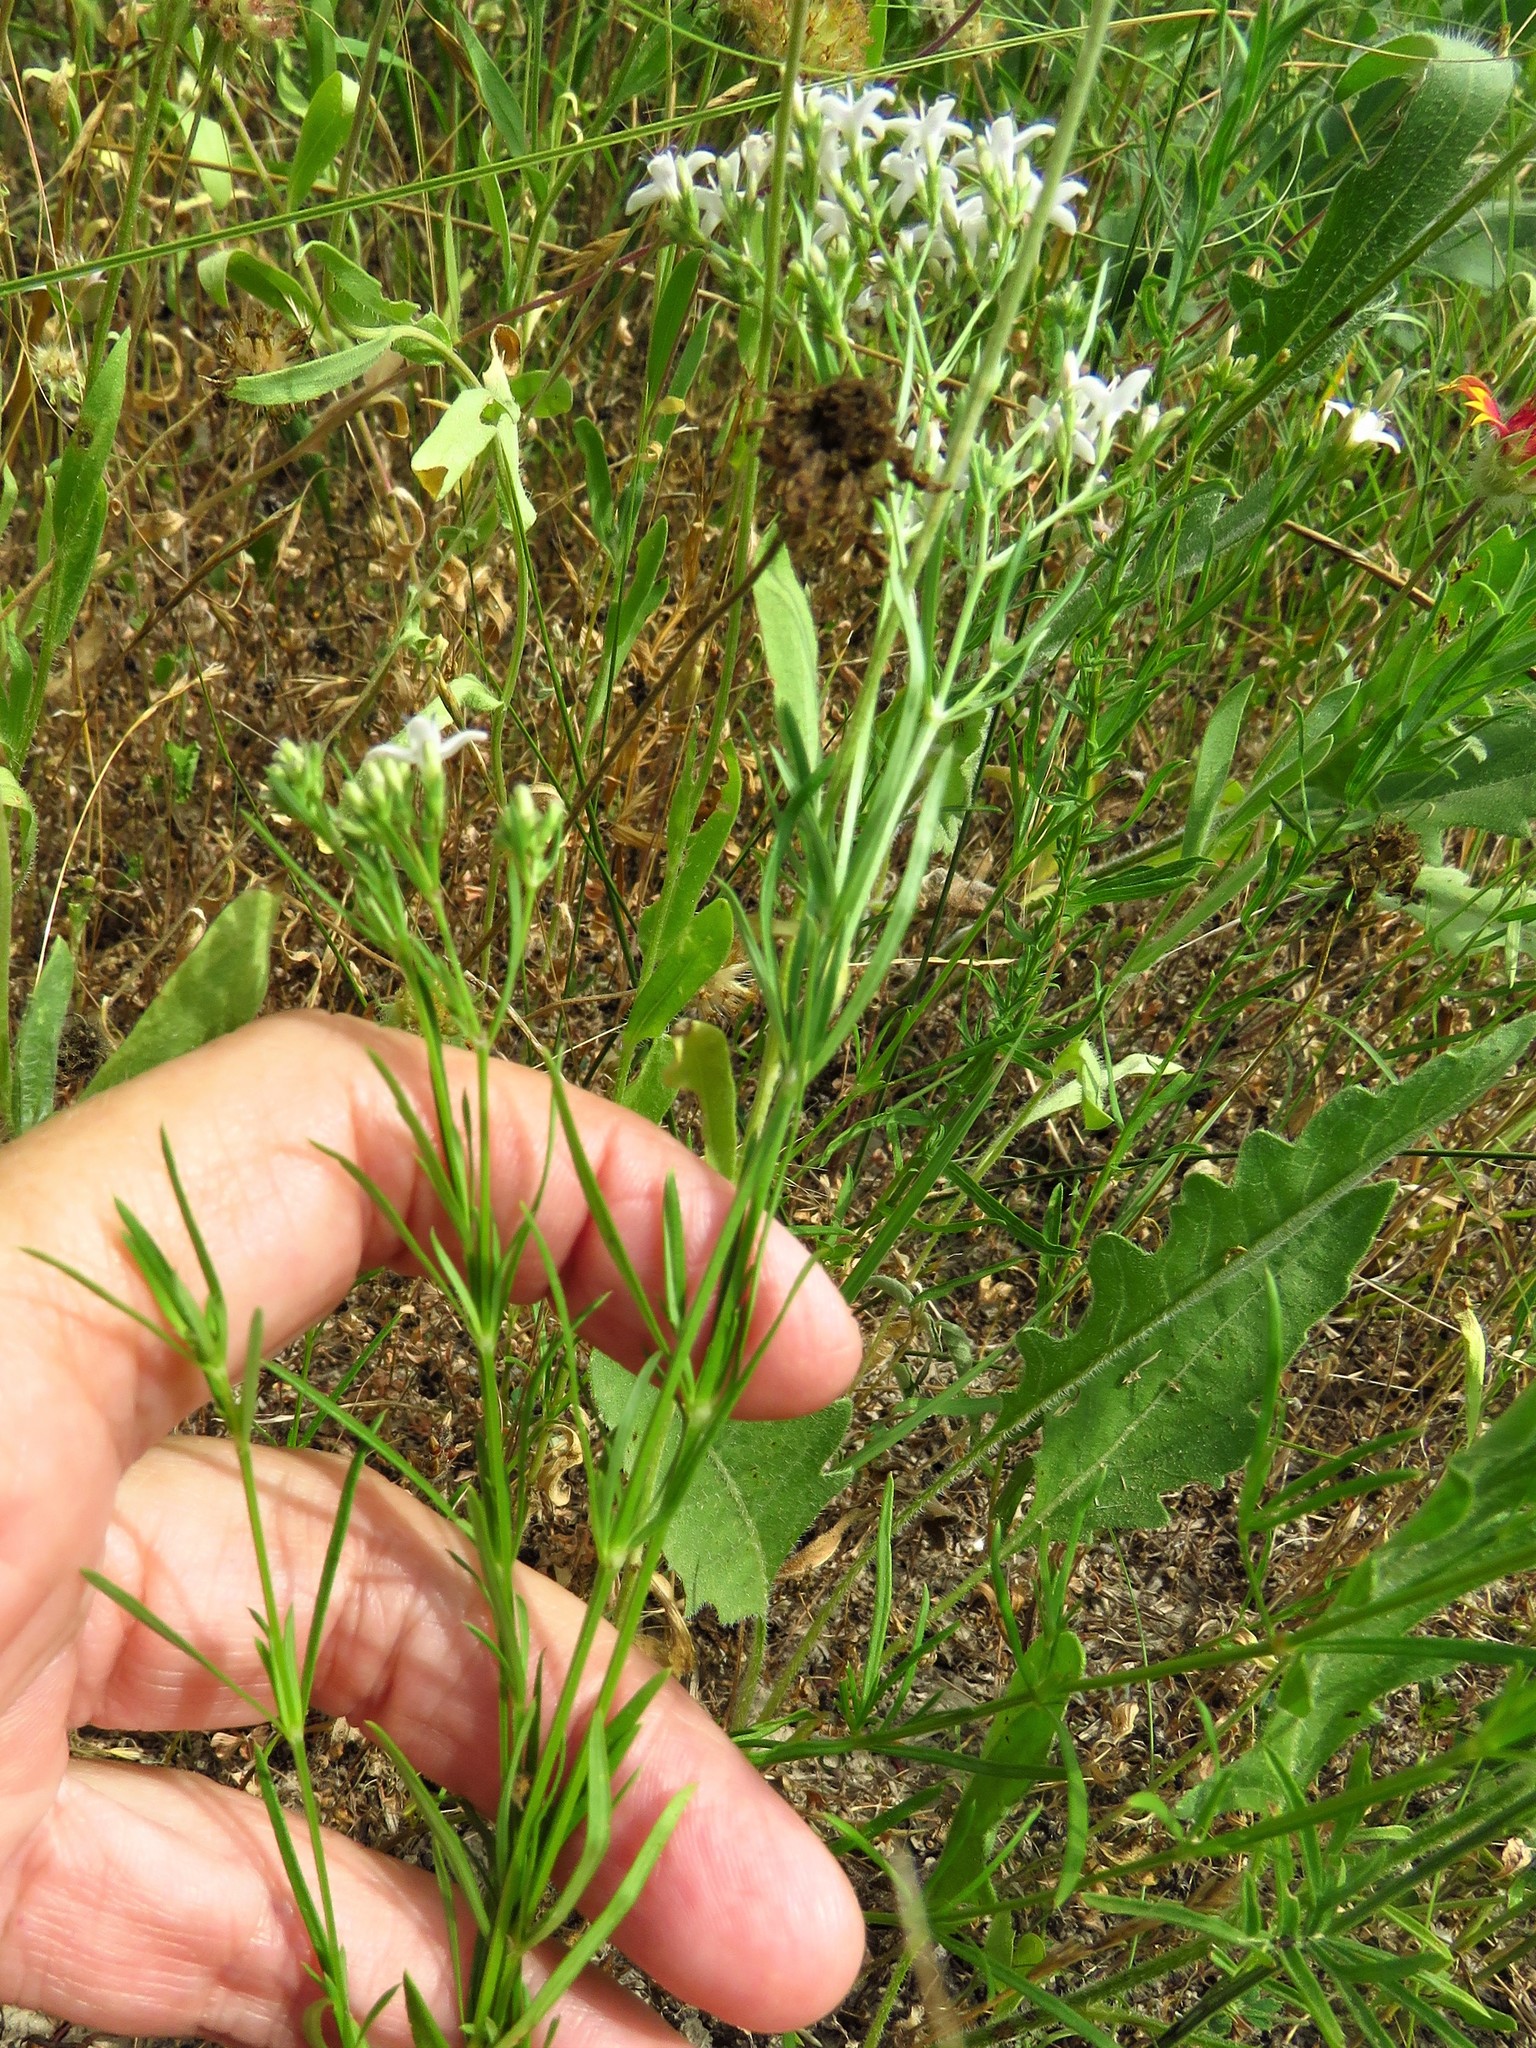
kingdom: Plantae
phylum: Tracheophyta
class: Magnoliopsida
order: Gentianales
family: Rubiaceae
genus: Stenaria
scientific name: Stenaria nigricans
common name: Diamondflowers
